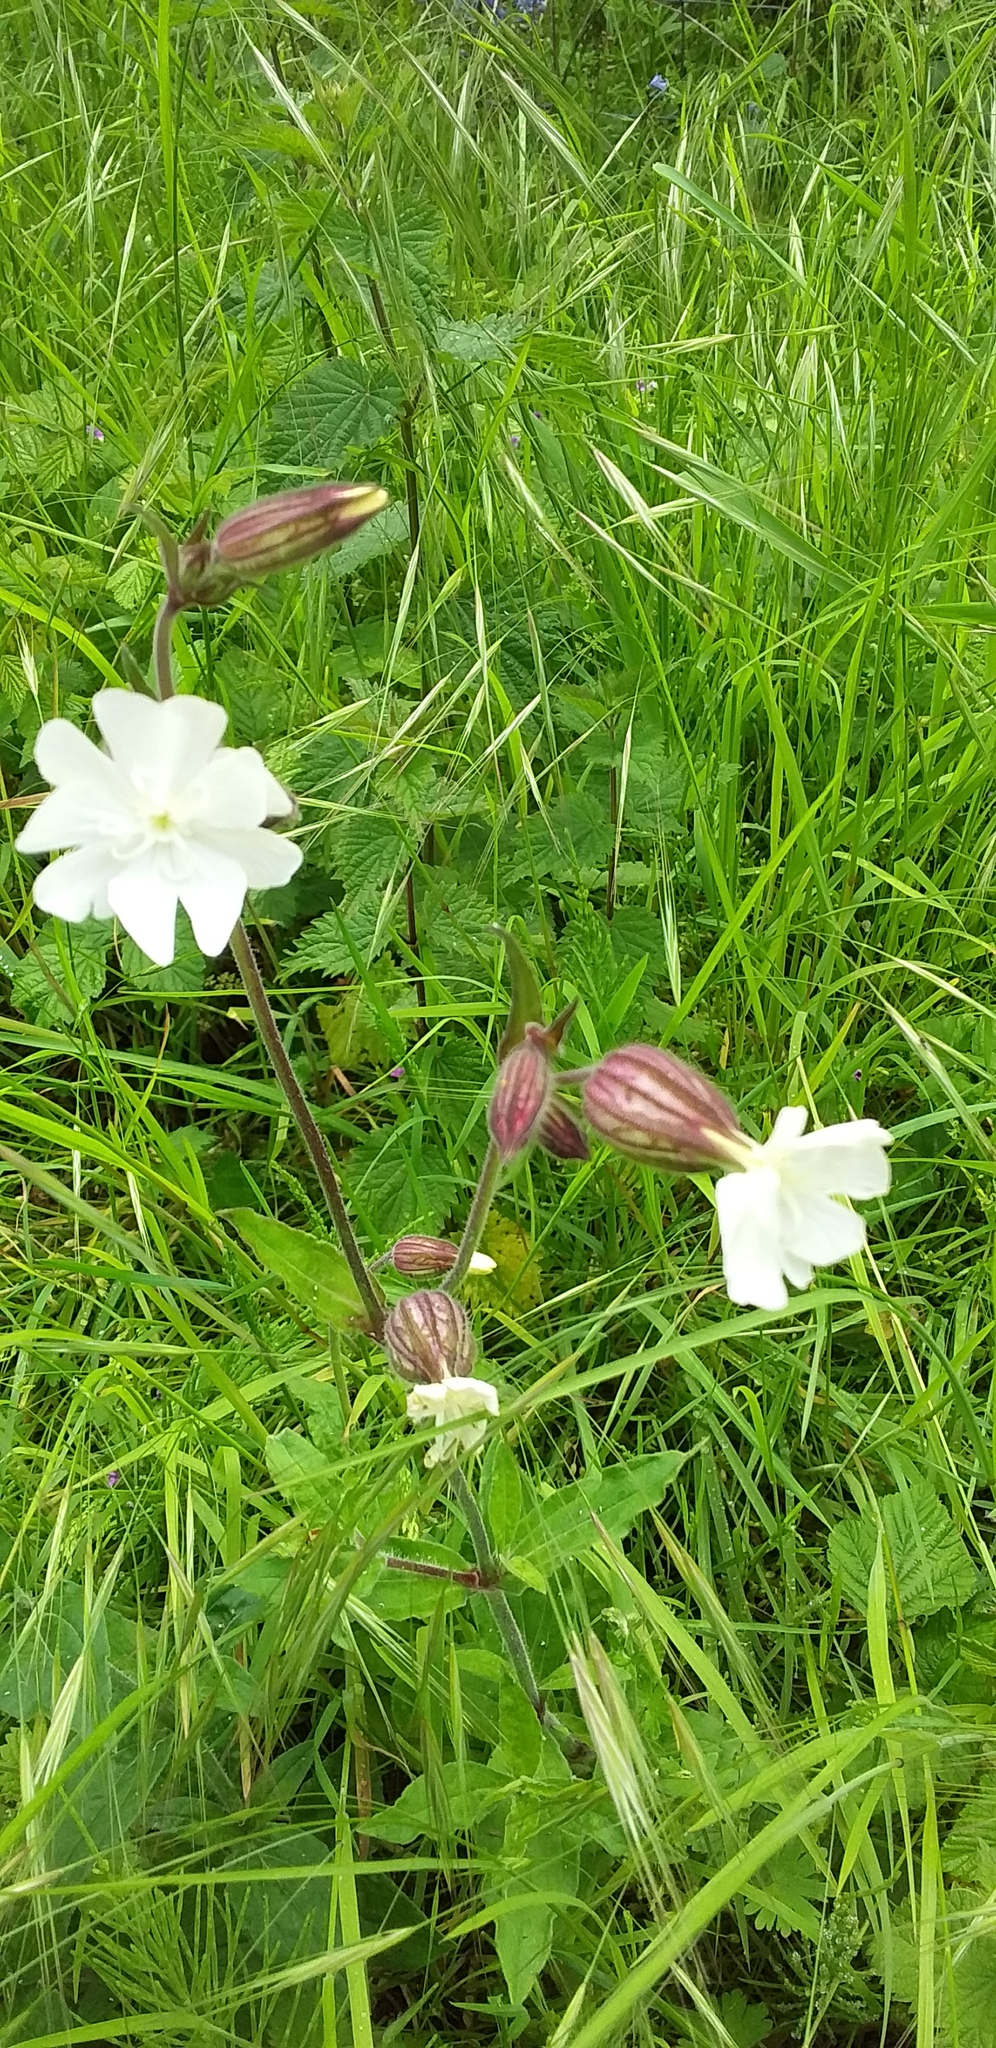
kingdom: Plantae
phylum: Tracheophyta
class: Magnoliopsida
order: Caryophyllales
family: Caryophyllaceae
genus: Silene
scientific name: Silene latifolia
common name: White campion
